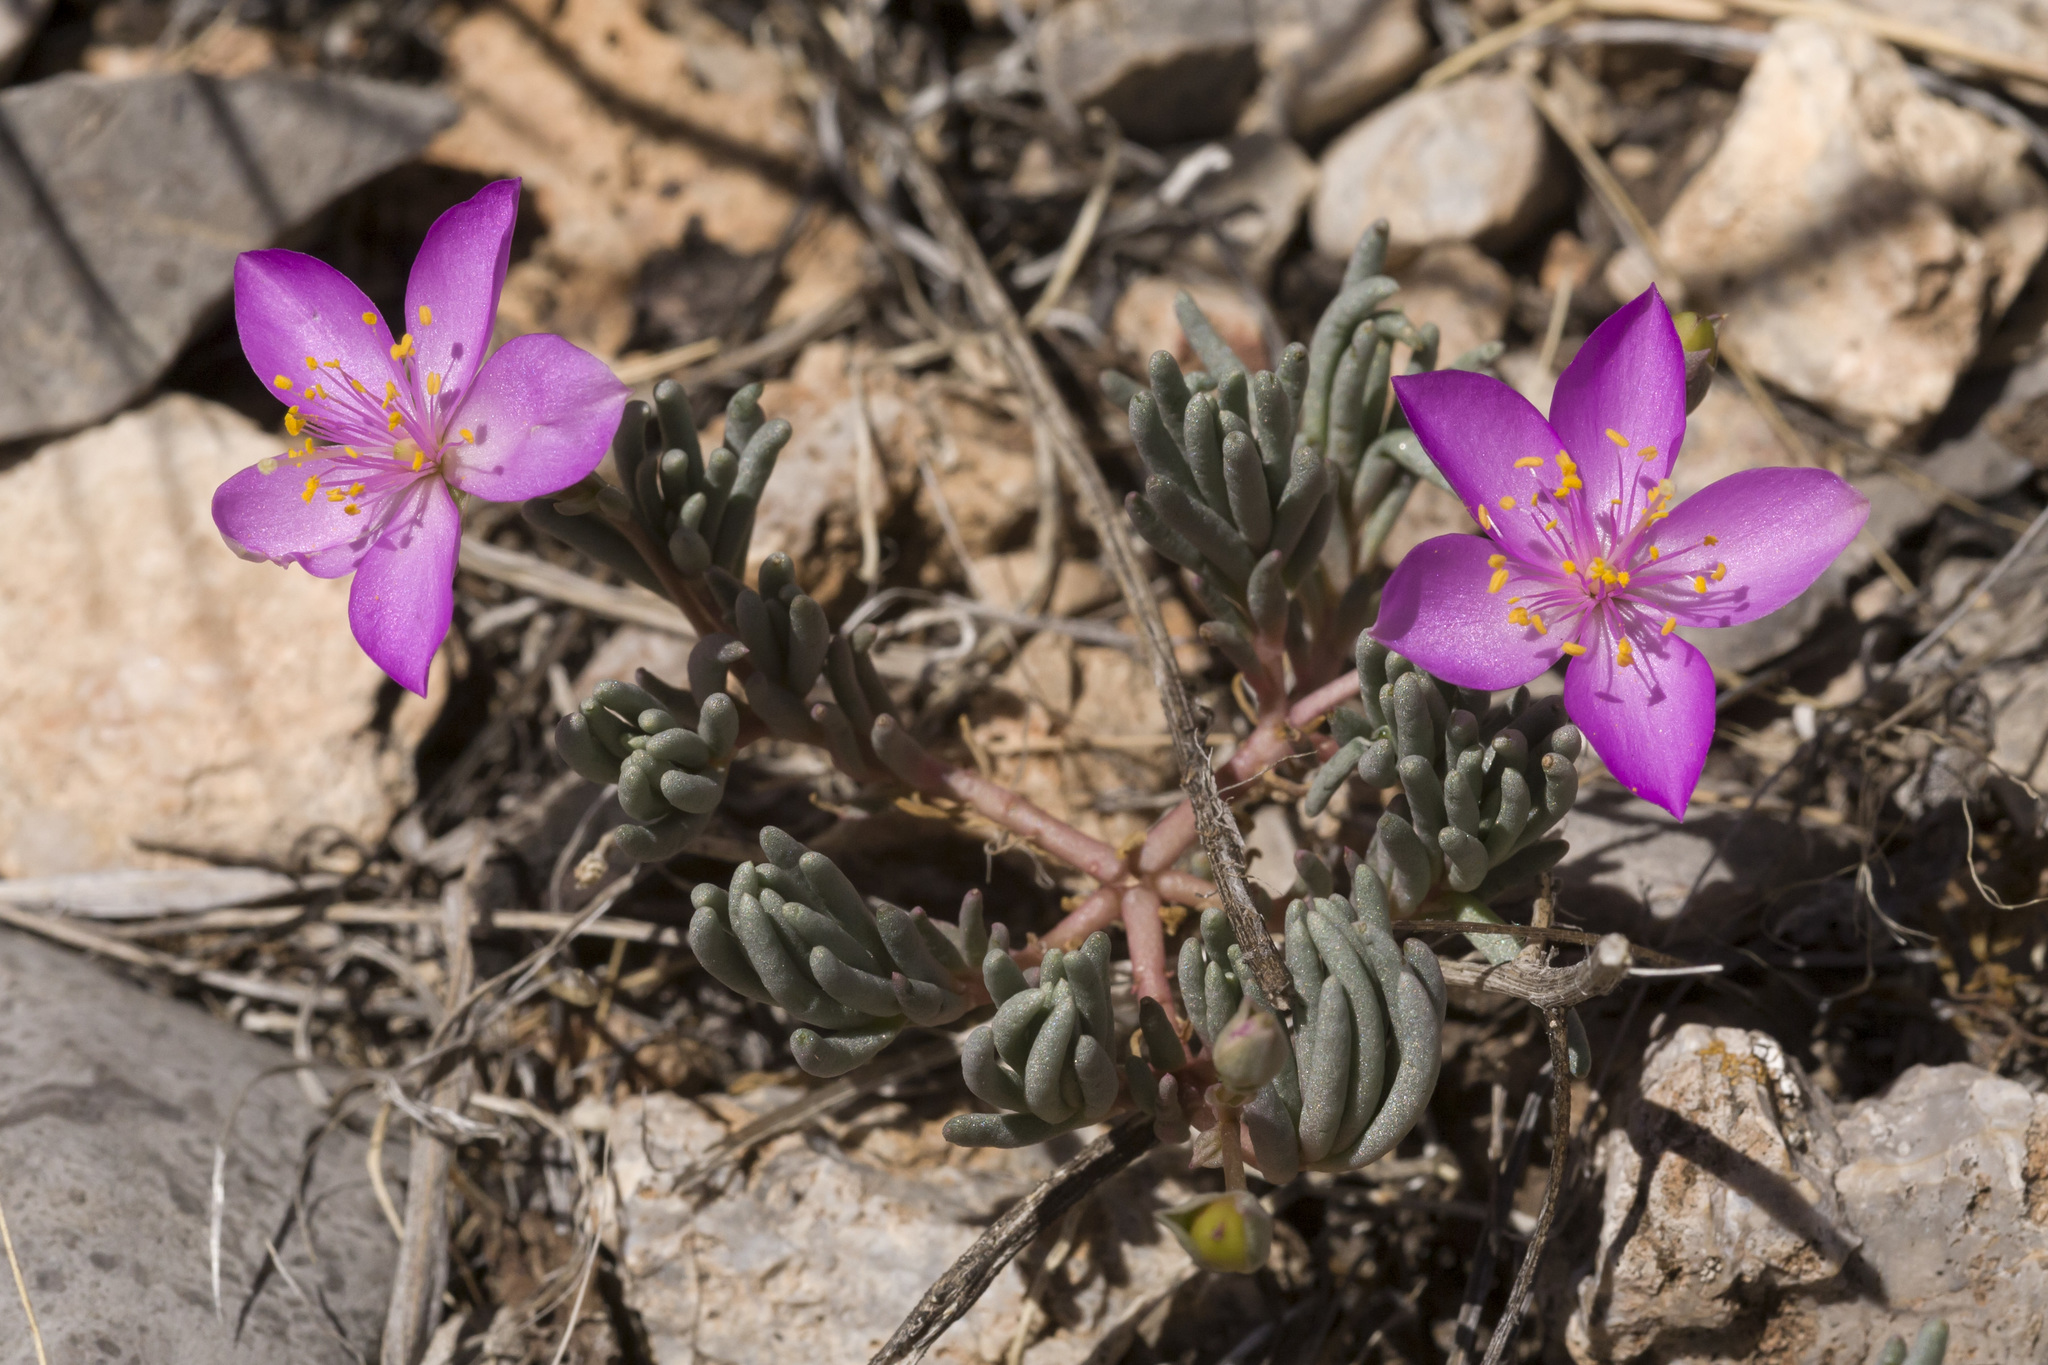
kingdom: Plantae
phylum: Tracheophyta
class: Magnoliopsida
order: Caryophyllales
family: Montiaceae
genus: Phemeranthus
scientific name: Phemeranthus brevicaulis
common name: Dwarf fameflower
